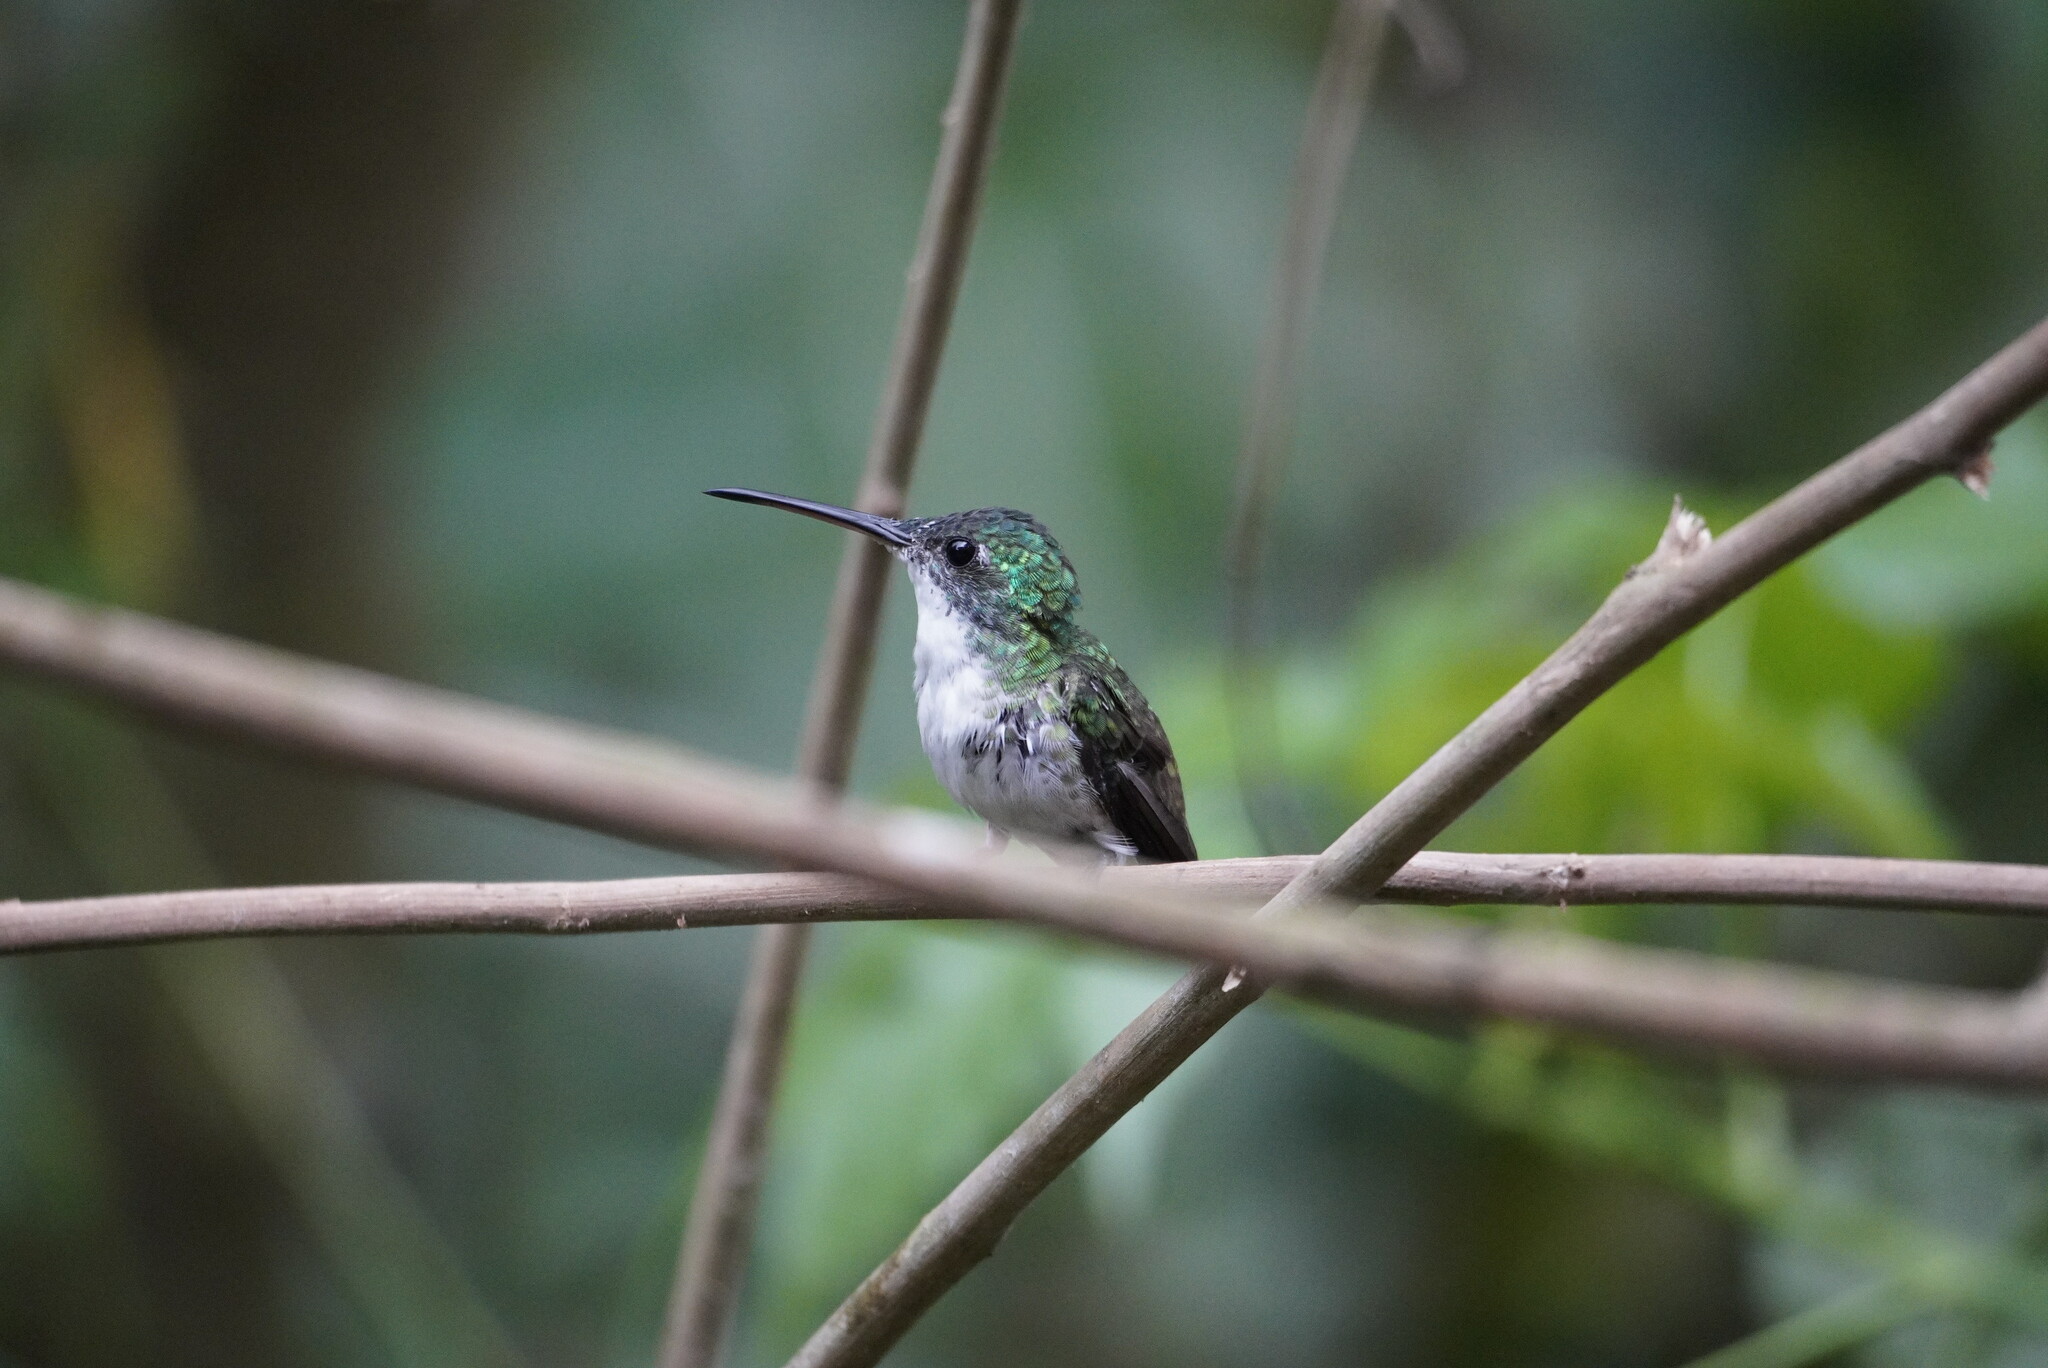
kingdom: Animalia
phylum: Chordata
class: Aves
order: Apodiformes
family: Trochilidae
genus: Uranomitra
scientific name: Uranomitra franciae
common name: Andean emerald
